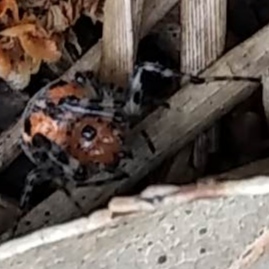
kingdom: Animalia
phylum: Arthropoda
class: Arachnida
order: Araneae
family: Araneidae
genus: Alpaida
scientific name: Alpaida gallardoi
